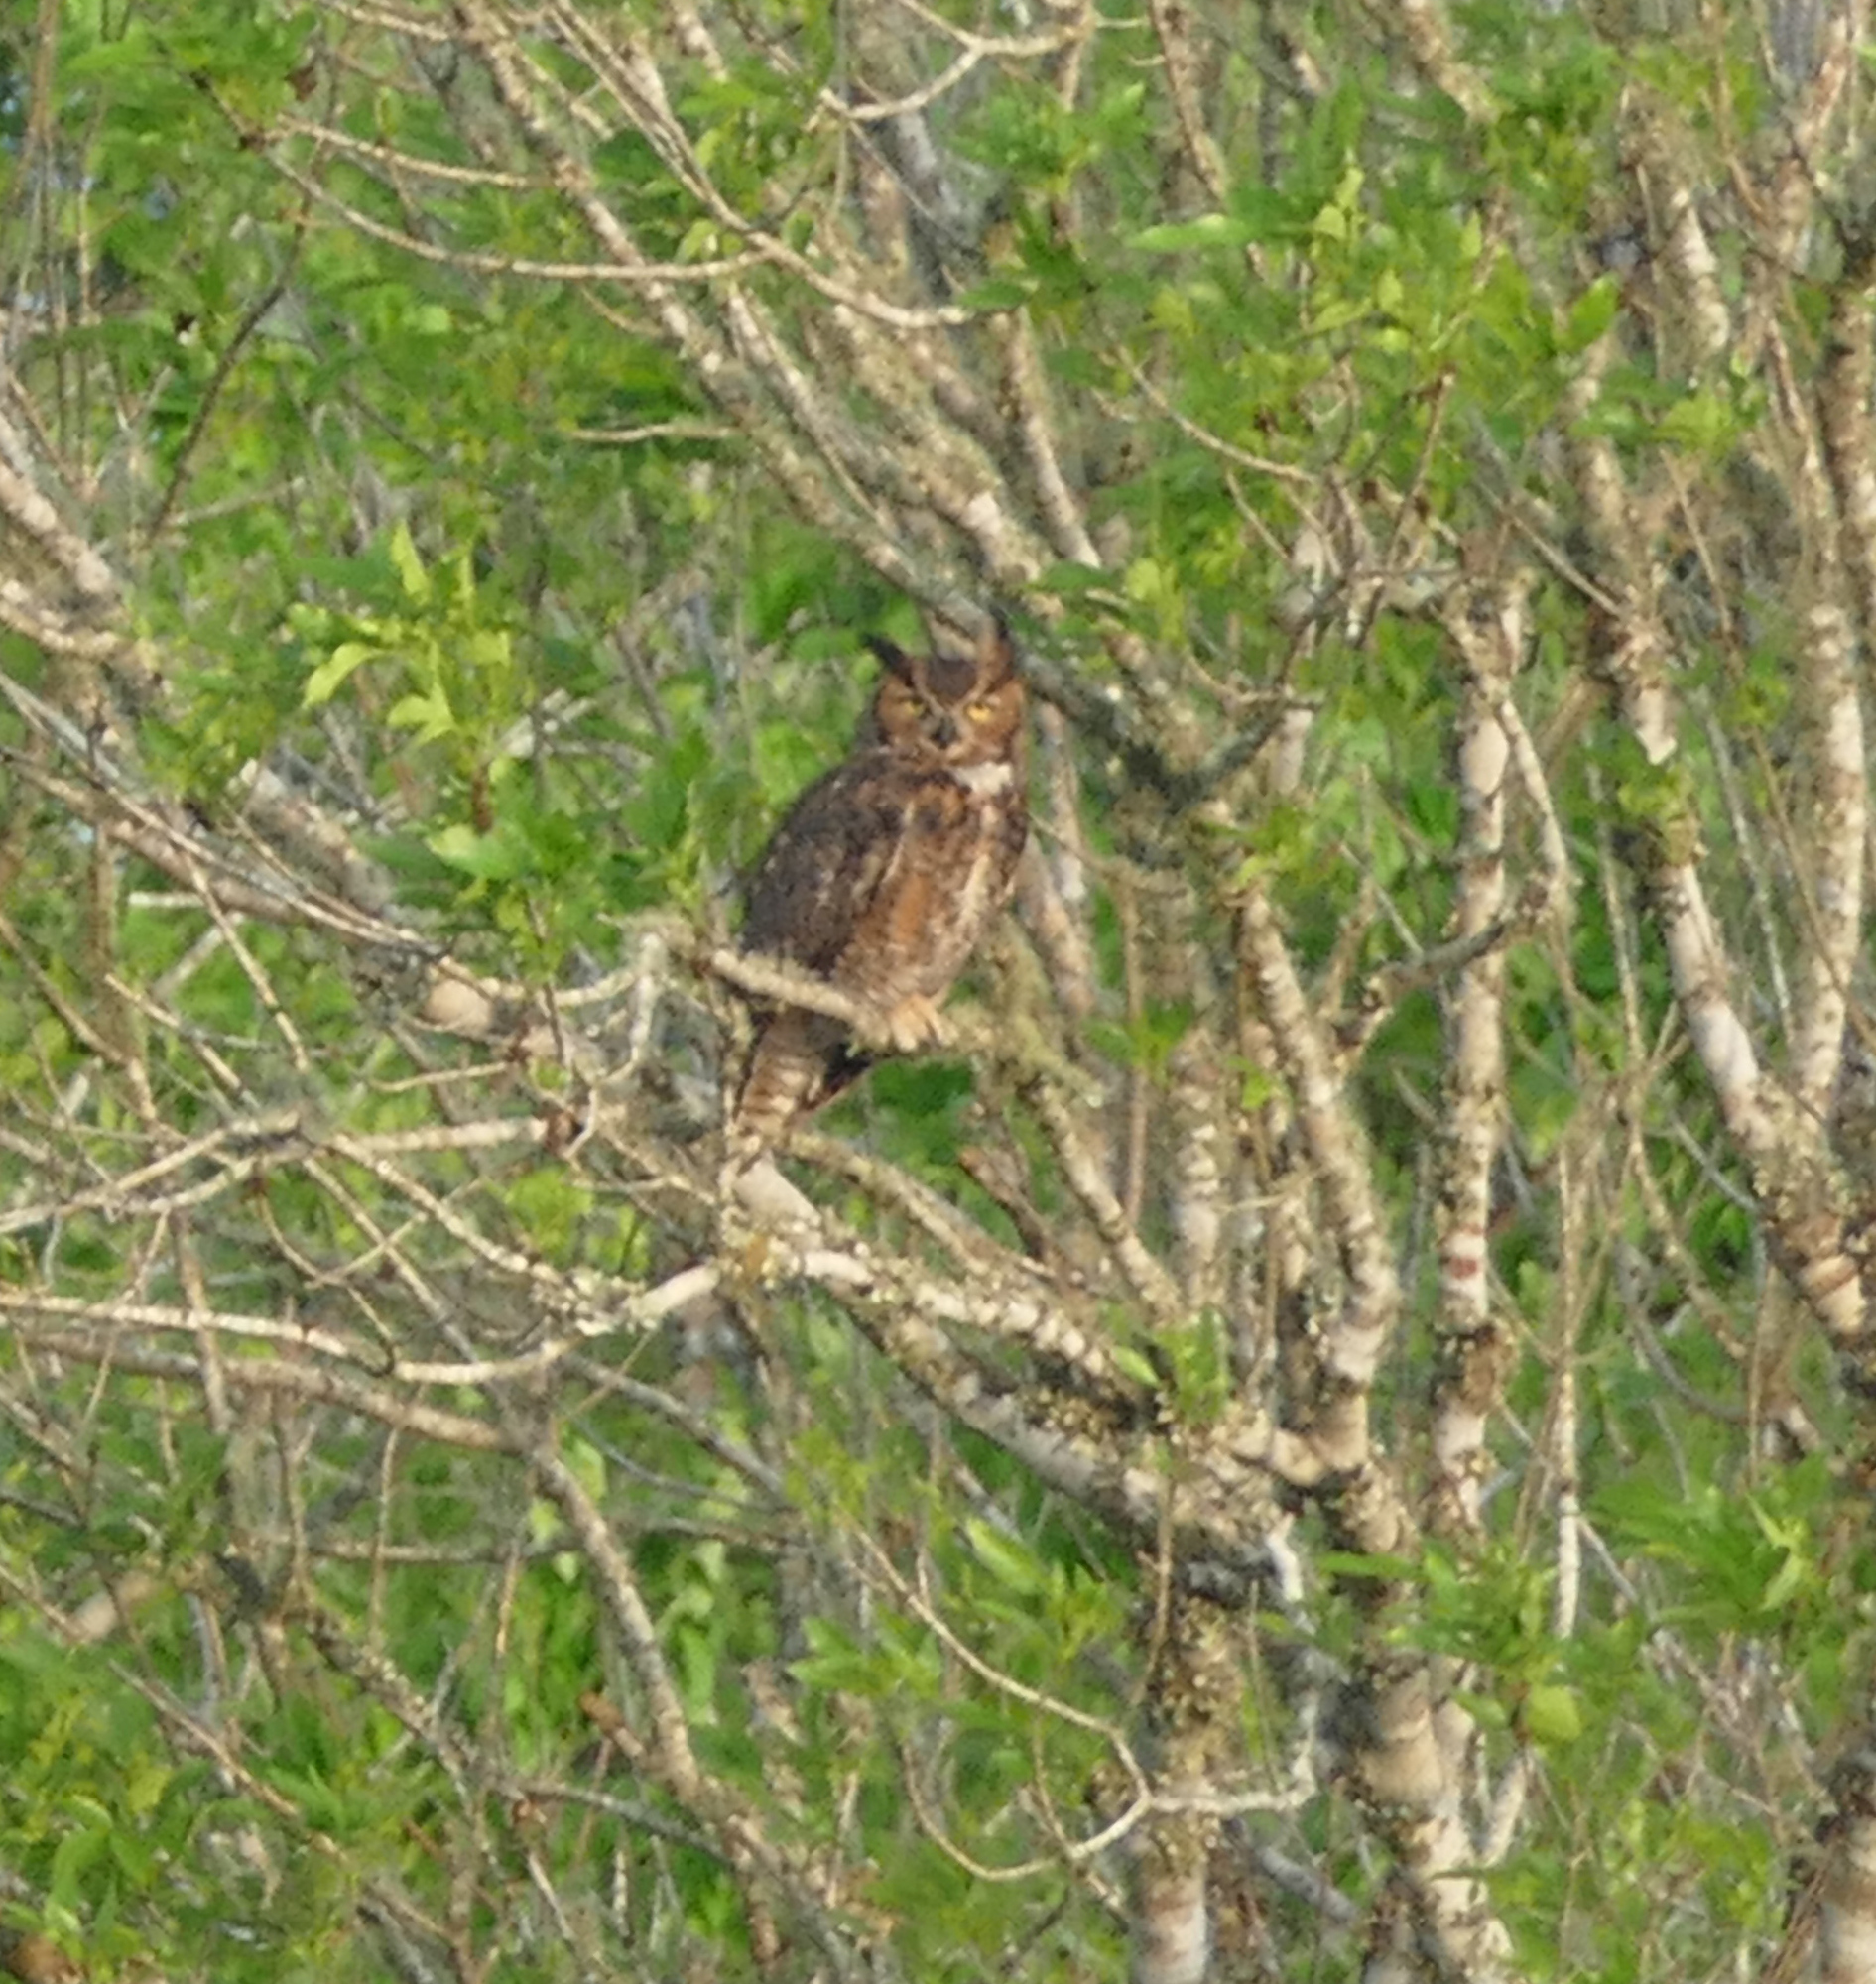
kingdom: Animalia
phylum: Chordata
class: Aves
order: Strigiformes
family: Strigidae
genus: Bubo
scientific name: Bubo virginianus
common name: Great horned owl
